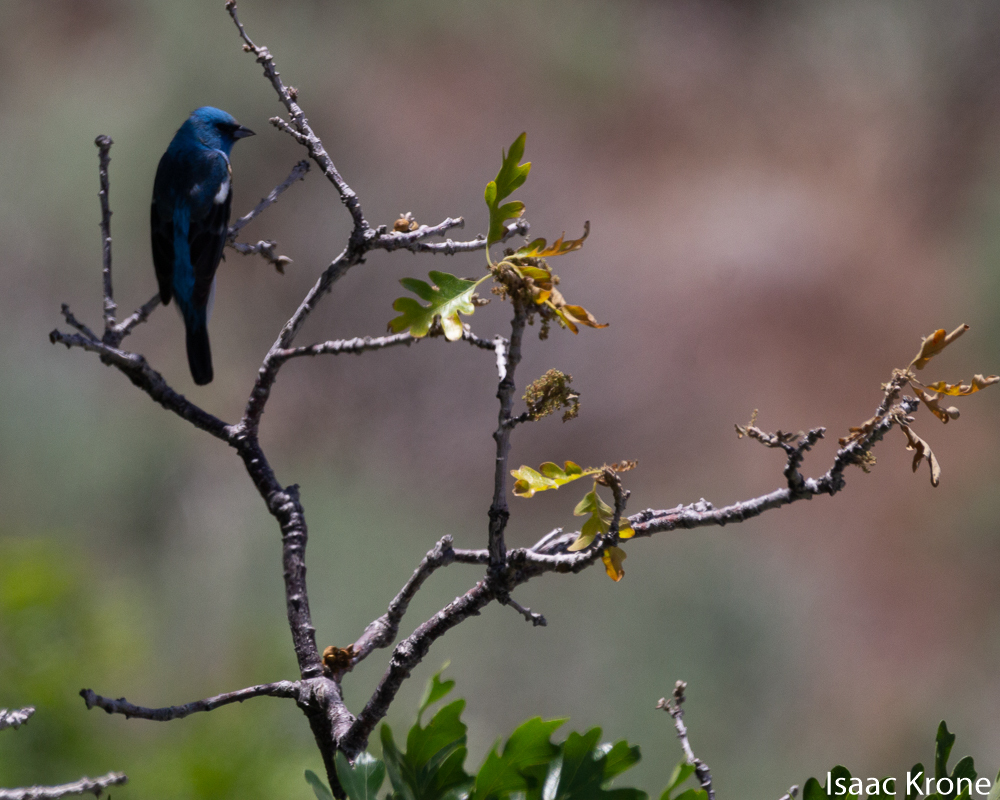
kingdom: Animalia
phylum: Chordata
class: Aves
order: Passeriformes
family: Cardinalidae
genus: Passerina
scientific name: Passerina amoena
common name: Lazuli bunting
